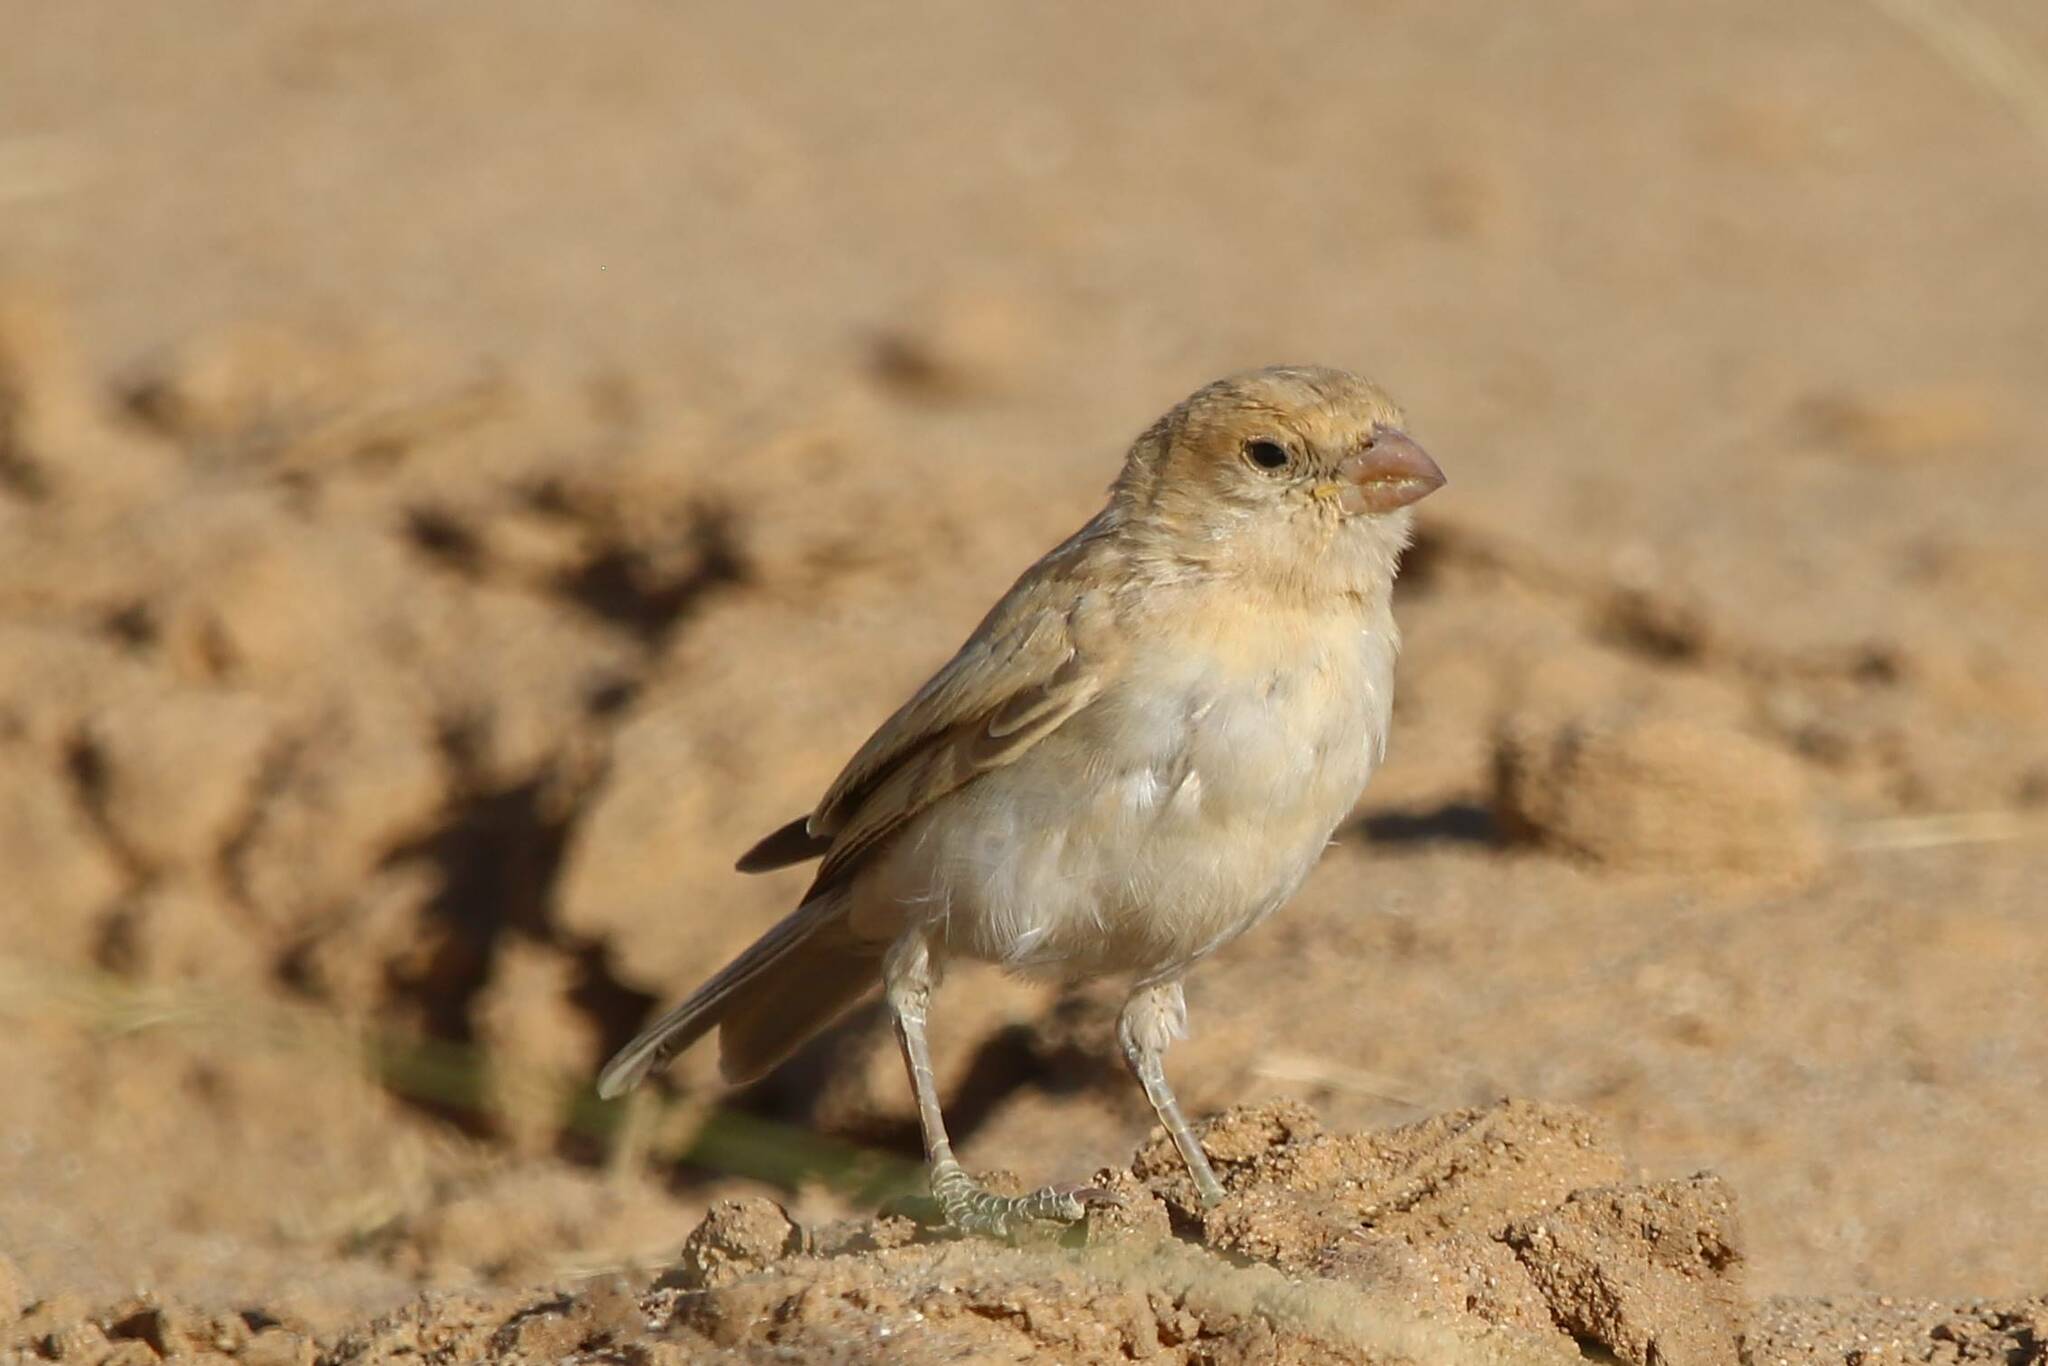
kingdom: Animalia
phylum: Chordata
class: Aves
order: Passeriformes
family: Passeridae
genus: Passer
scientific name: Passer simplex
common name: Desert sparrow
